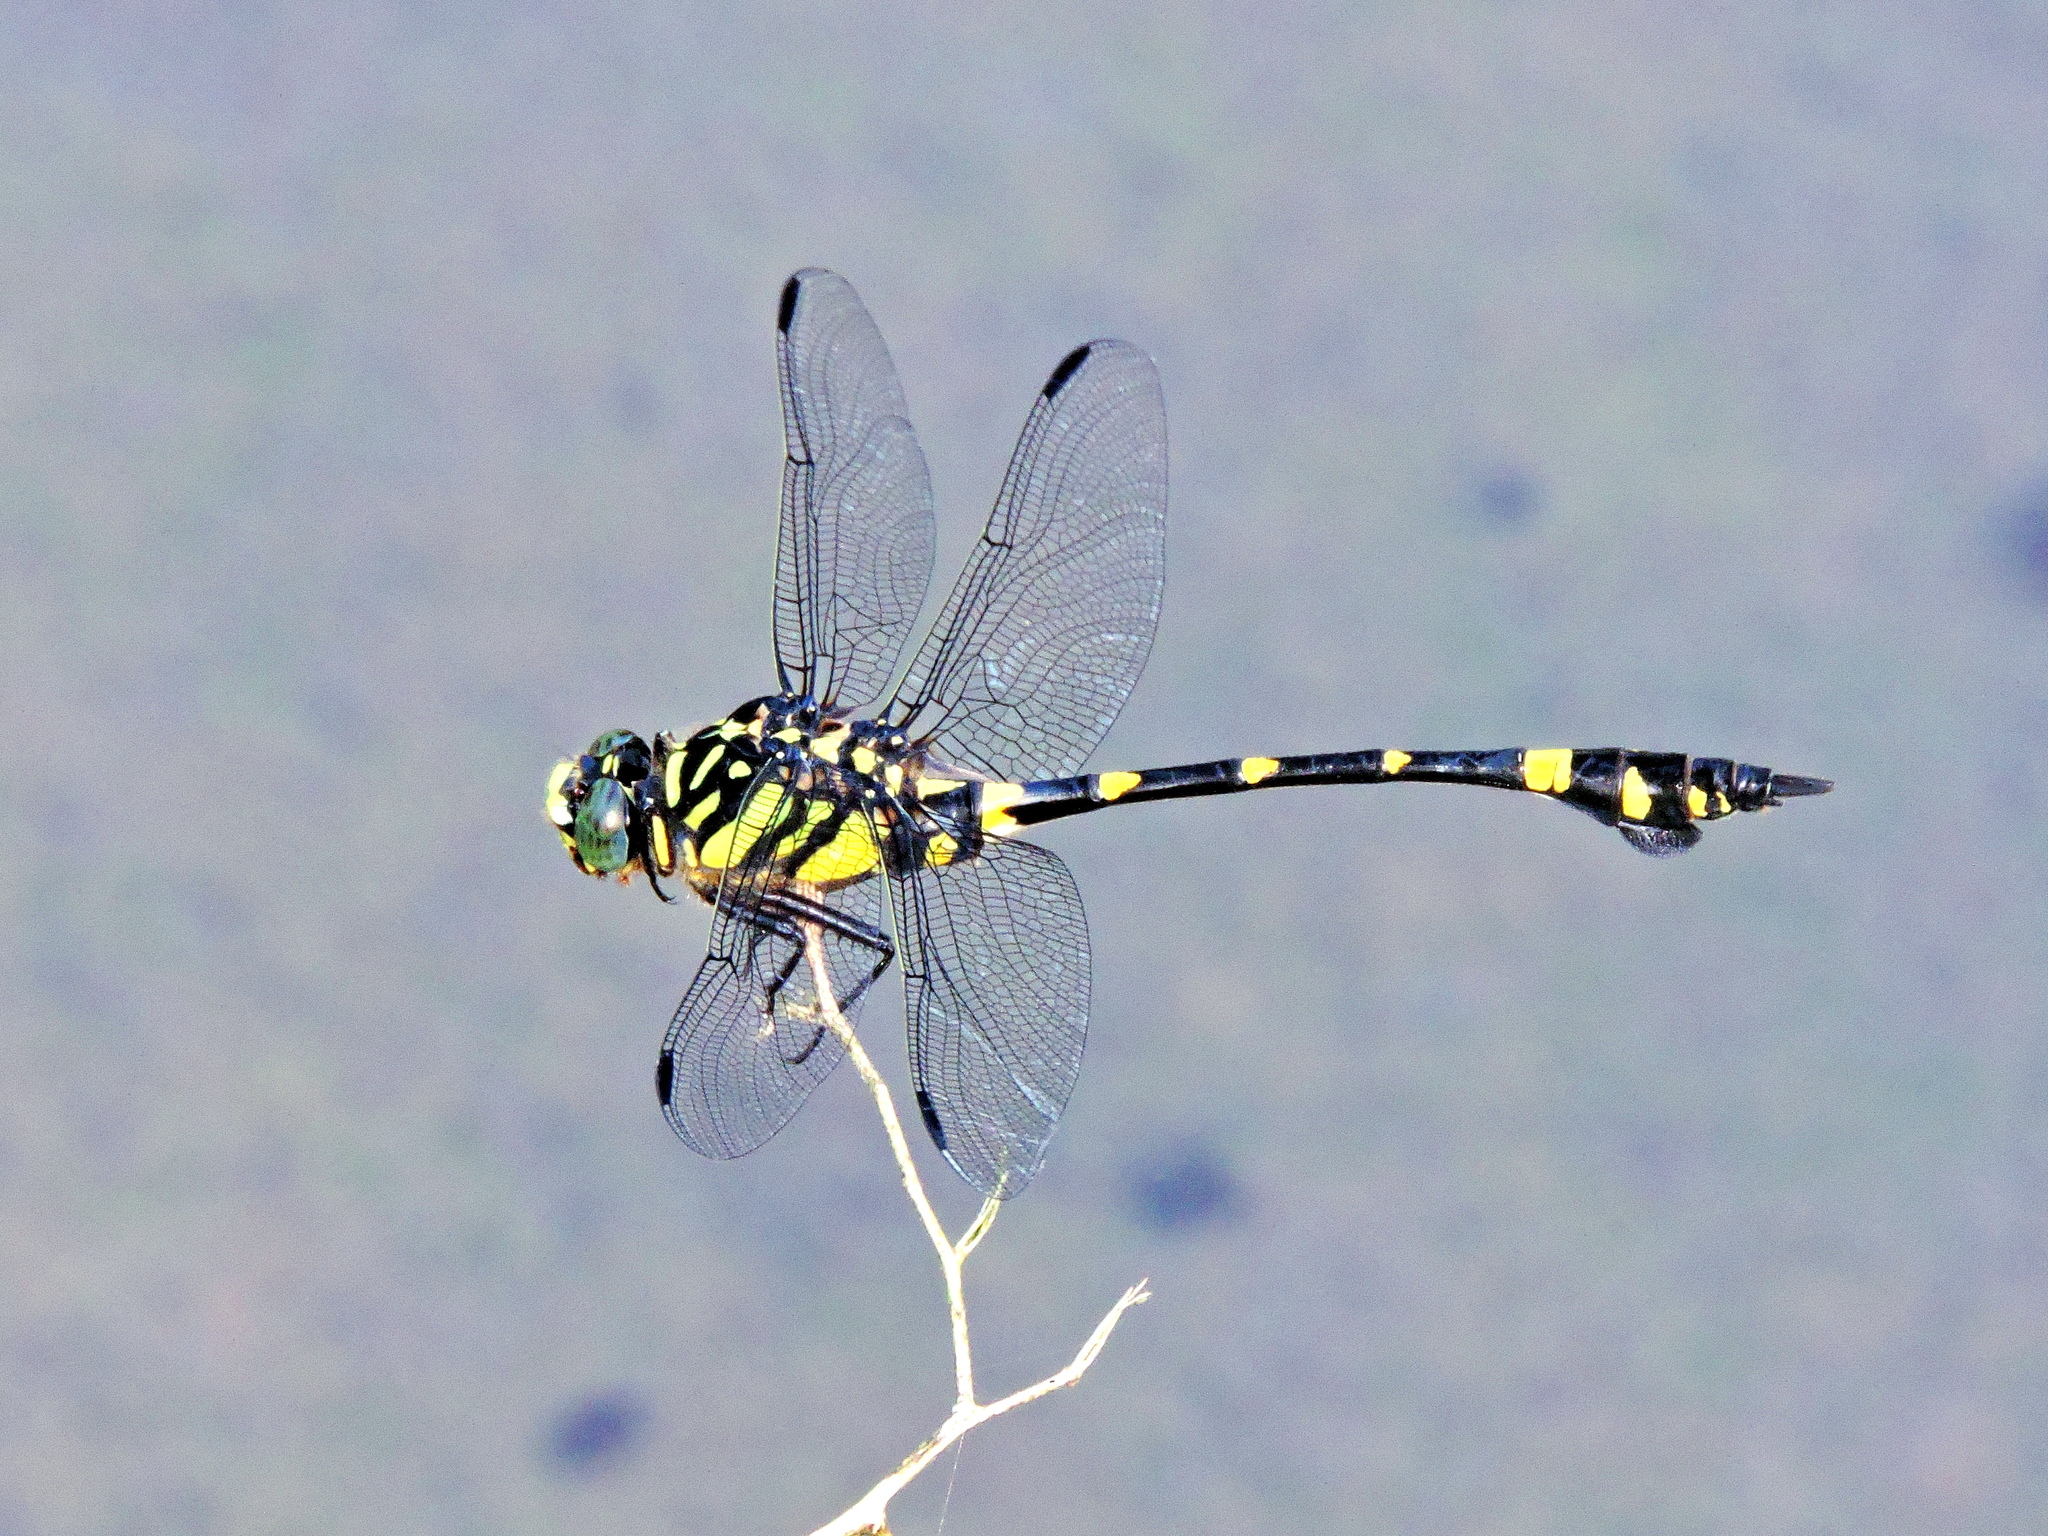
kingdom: Animalia
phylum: Arthropoda
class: Insecta
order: Odonata
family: Gomphidae
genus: Ictinogomphus
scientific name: Ictinogomphus rapax
